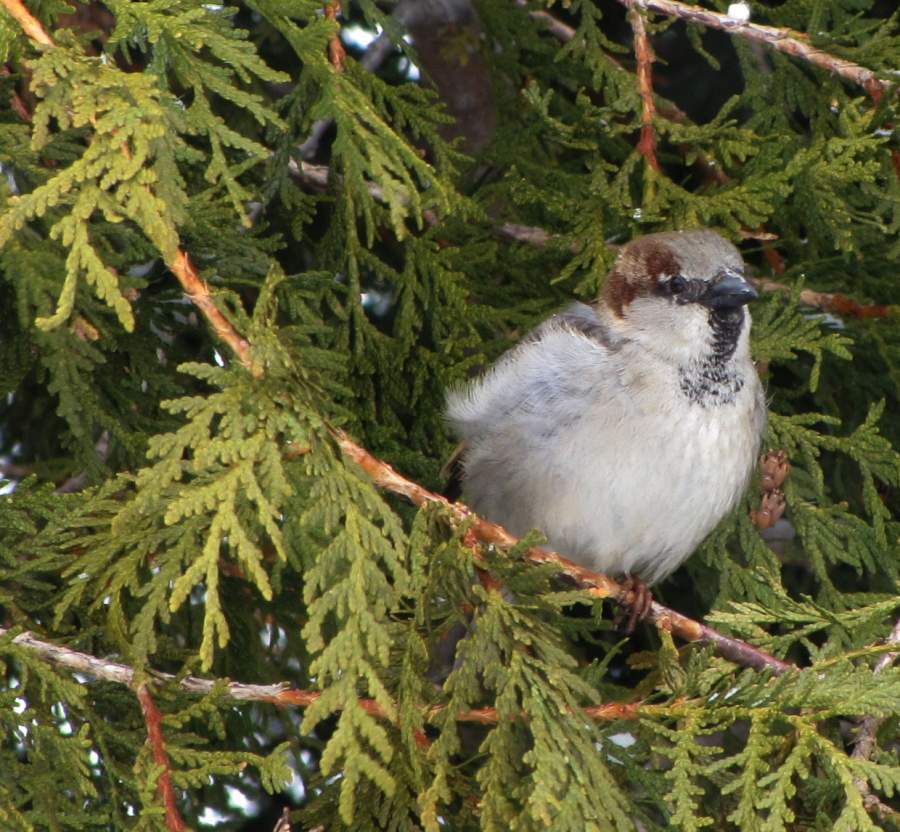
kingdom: Animalia
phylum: Chordata
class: Aves
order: Passeriformes
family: Passeridae
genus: Passer
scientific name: Passer domesticus
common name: House sparrow
